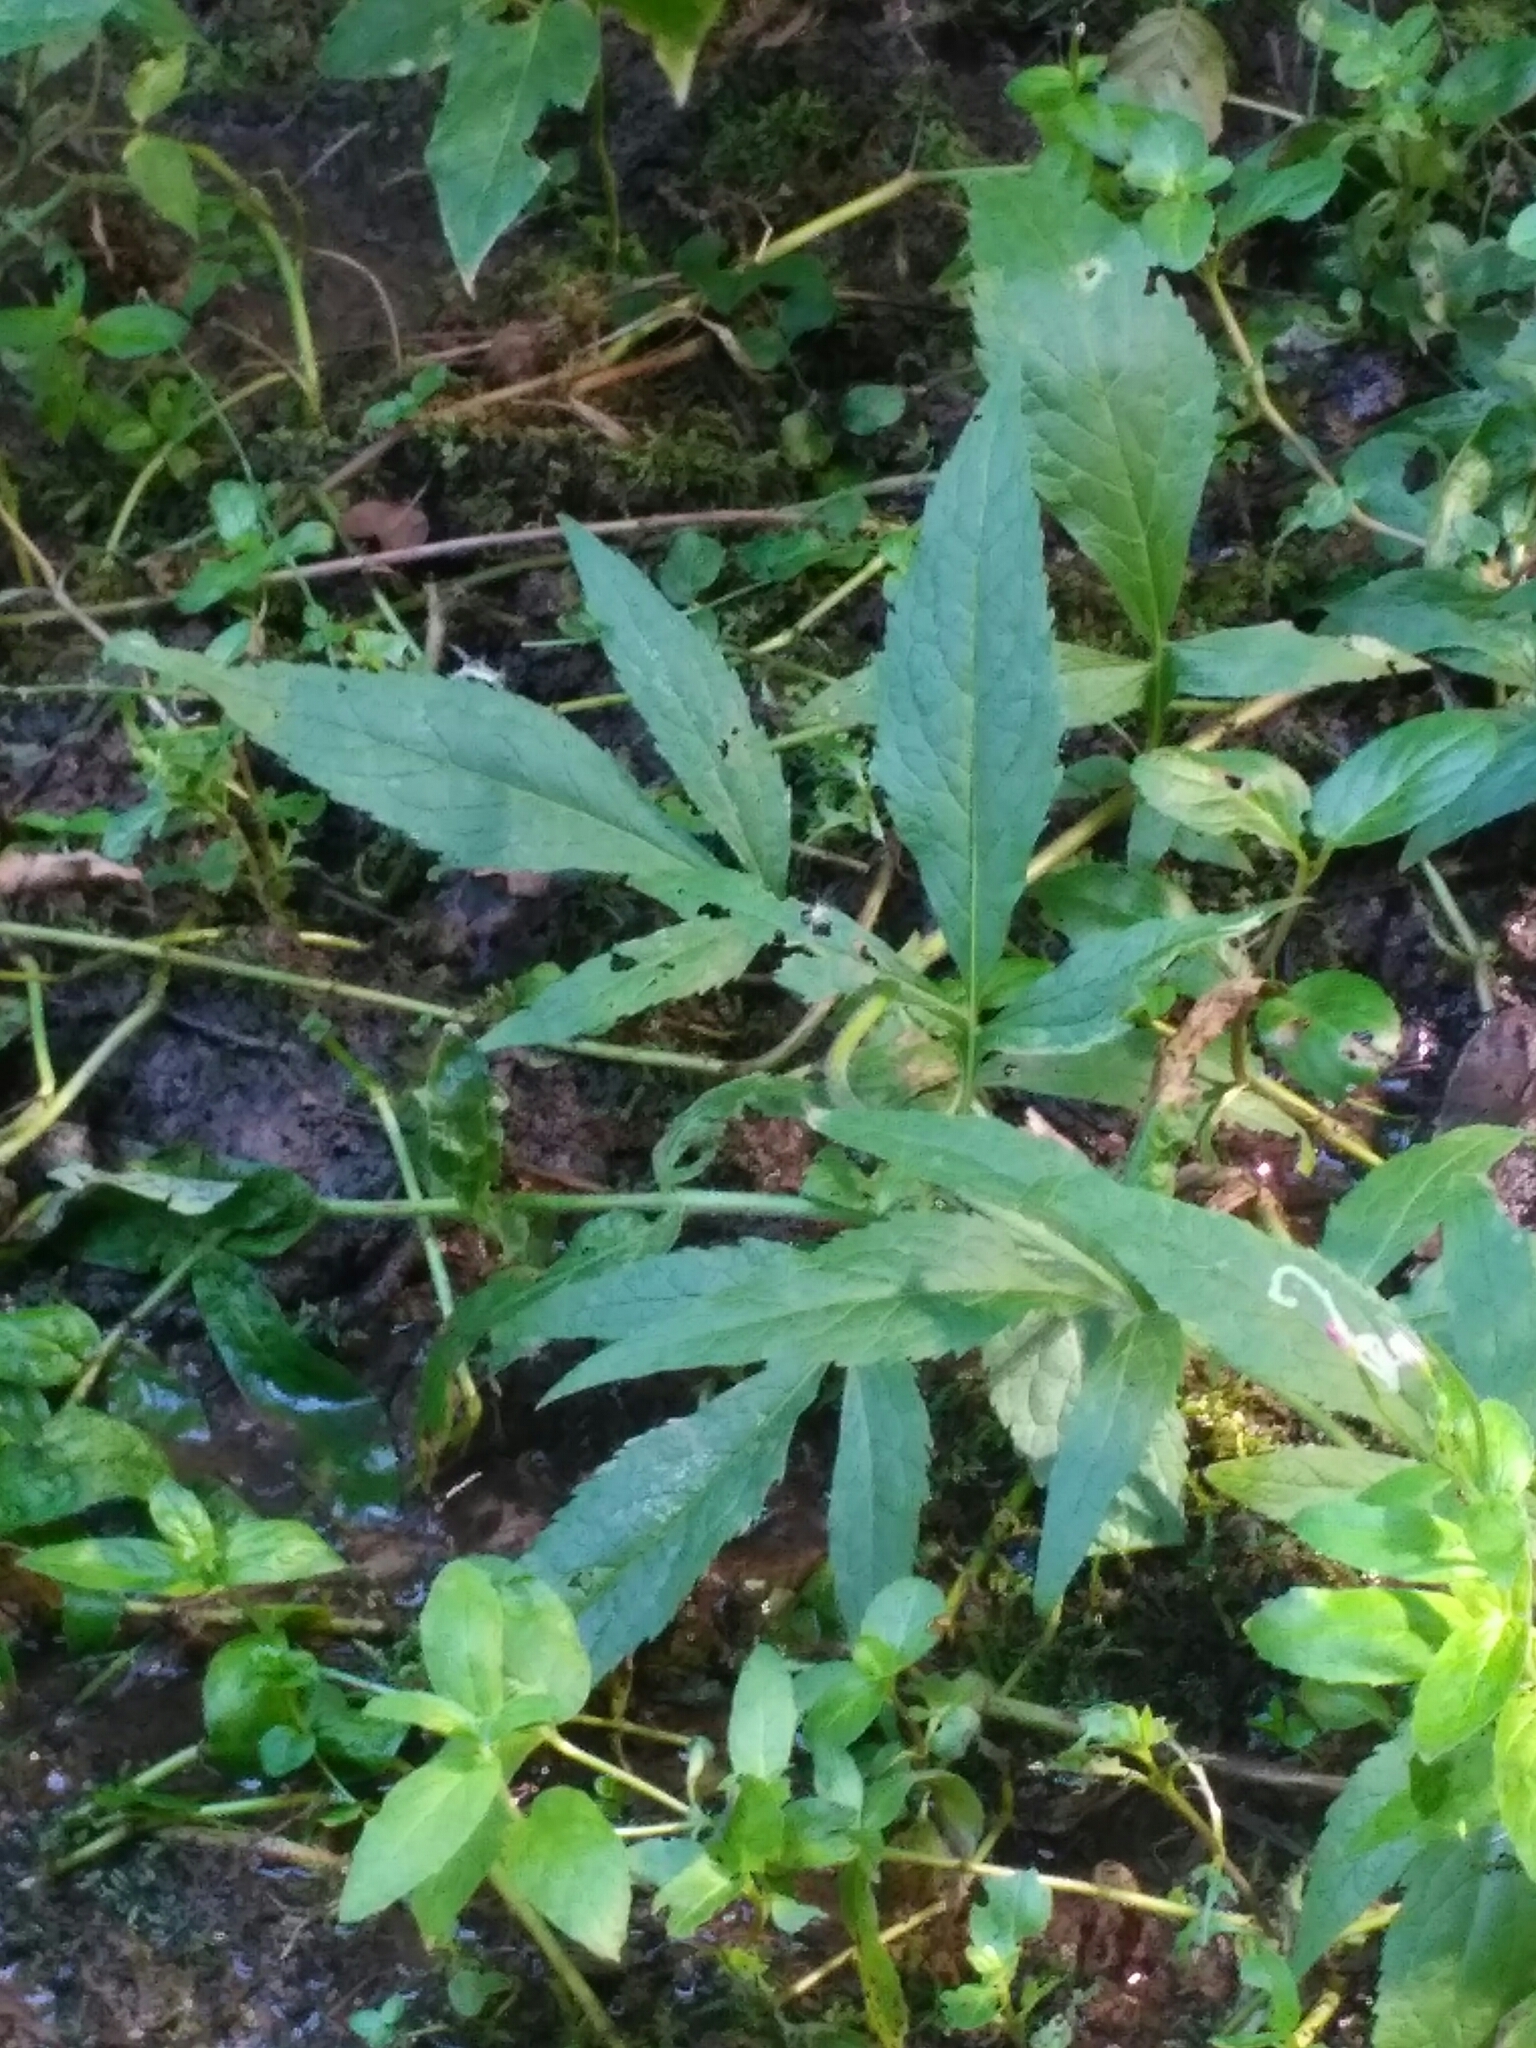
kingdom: Plantae
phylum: Tracheophyta
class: Magnoliopsida
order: Asterales
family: Asteraceae
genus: Bidens
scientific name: Bidens tripartita
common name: Trifid bur-marigold
